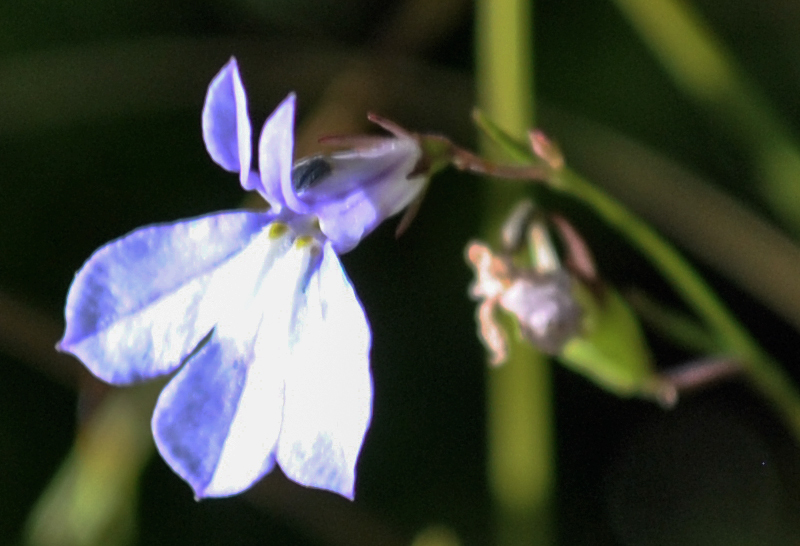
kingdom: Plantae
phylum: Tracheophyta
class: Magnoliopsida
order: Asterales
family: Campanulaceae
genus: Lobelia
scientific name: Lobelia kalmii
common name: Kalm's lobelia
